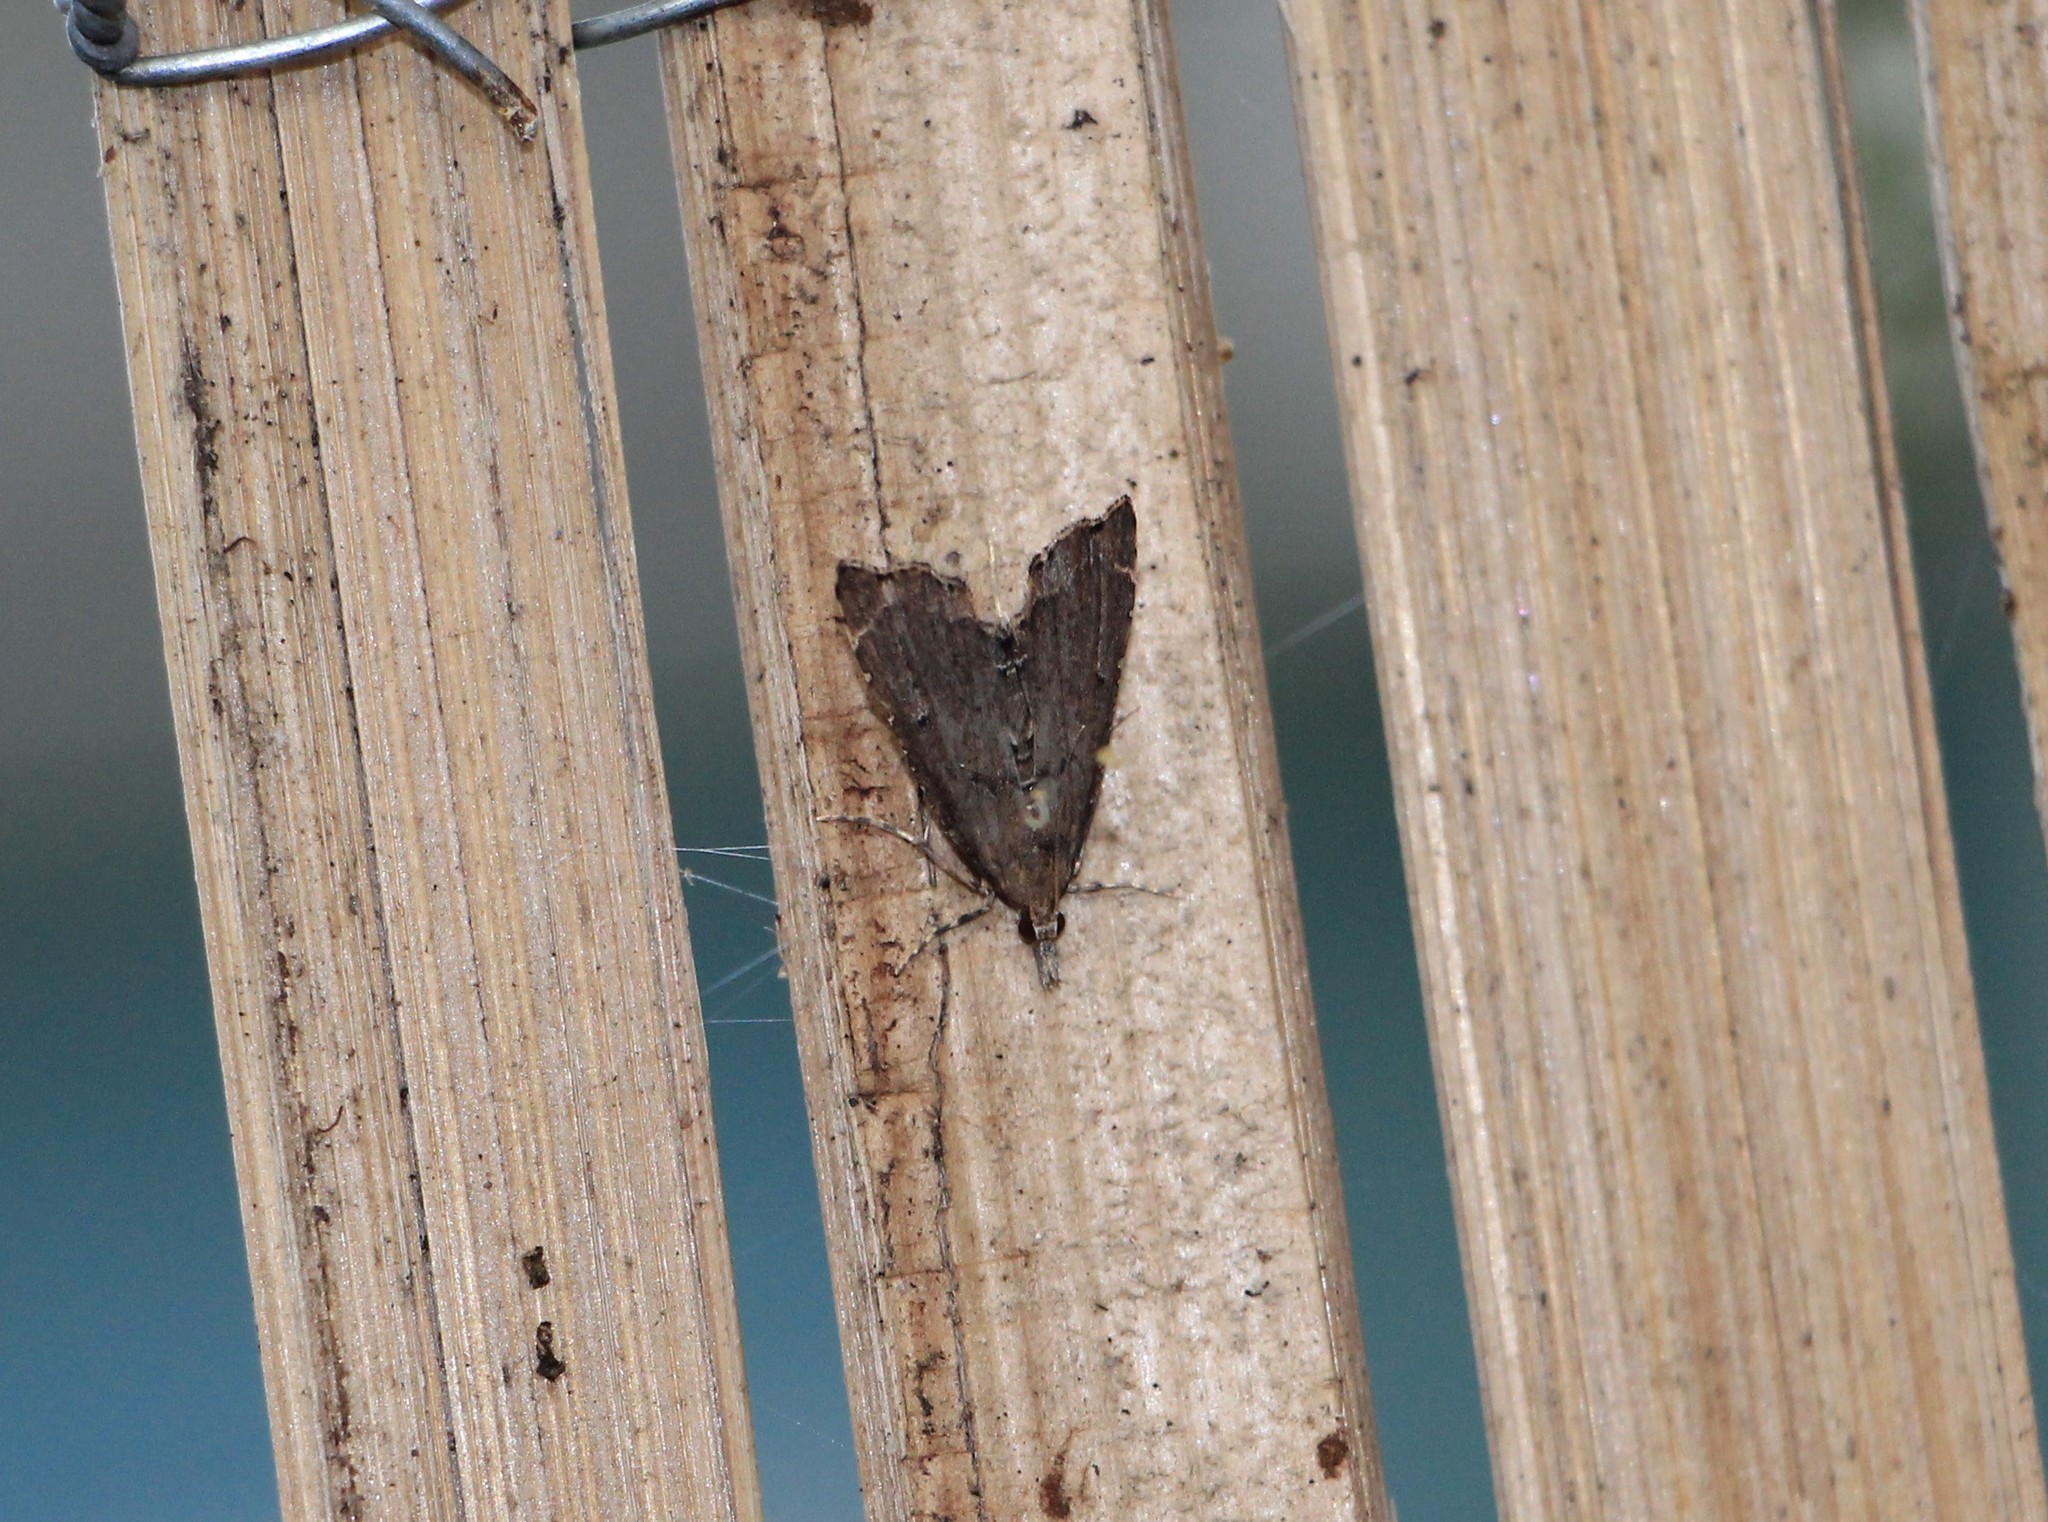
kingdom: Animalia
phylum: Arthropoda
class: Insecta
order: Lepidoptera
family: Crambidae
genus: Diplopseustis
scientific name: Diplopseustis perieresalis
